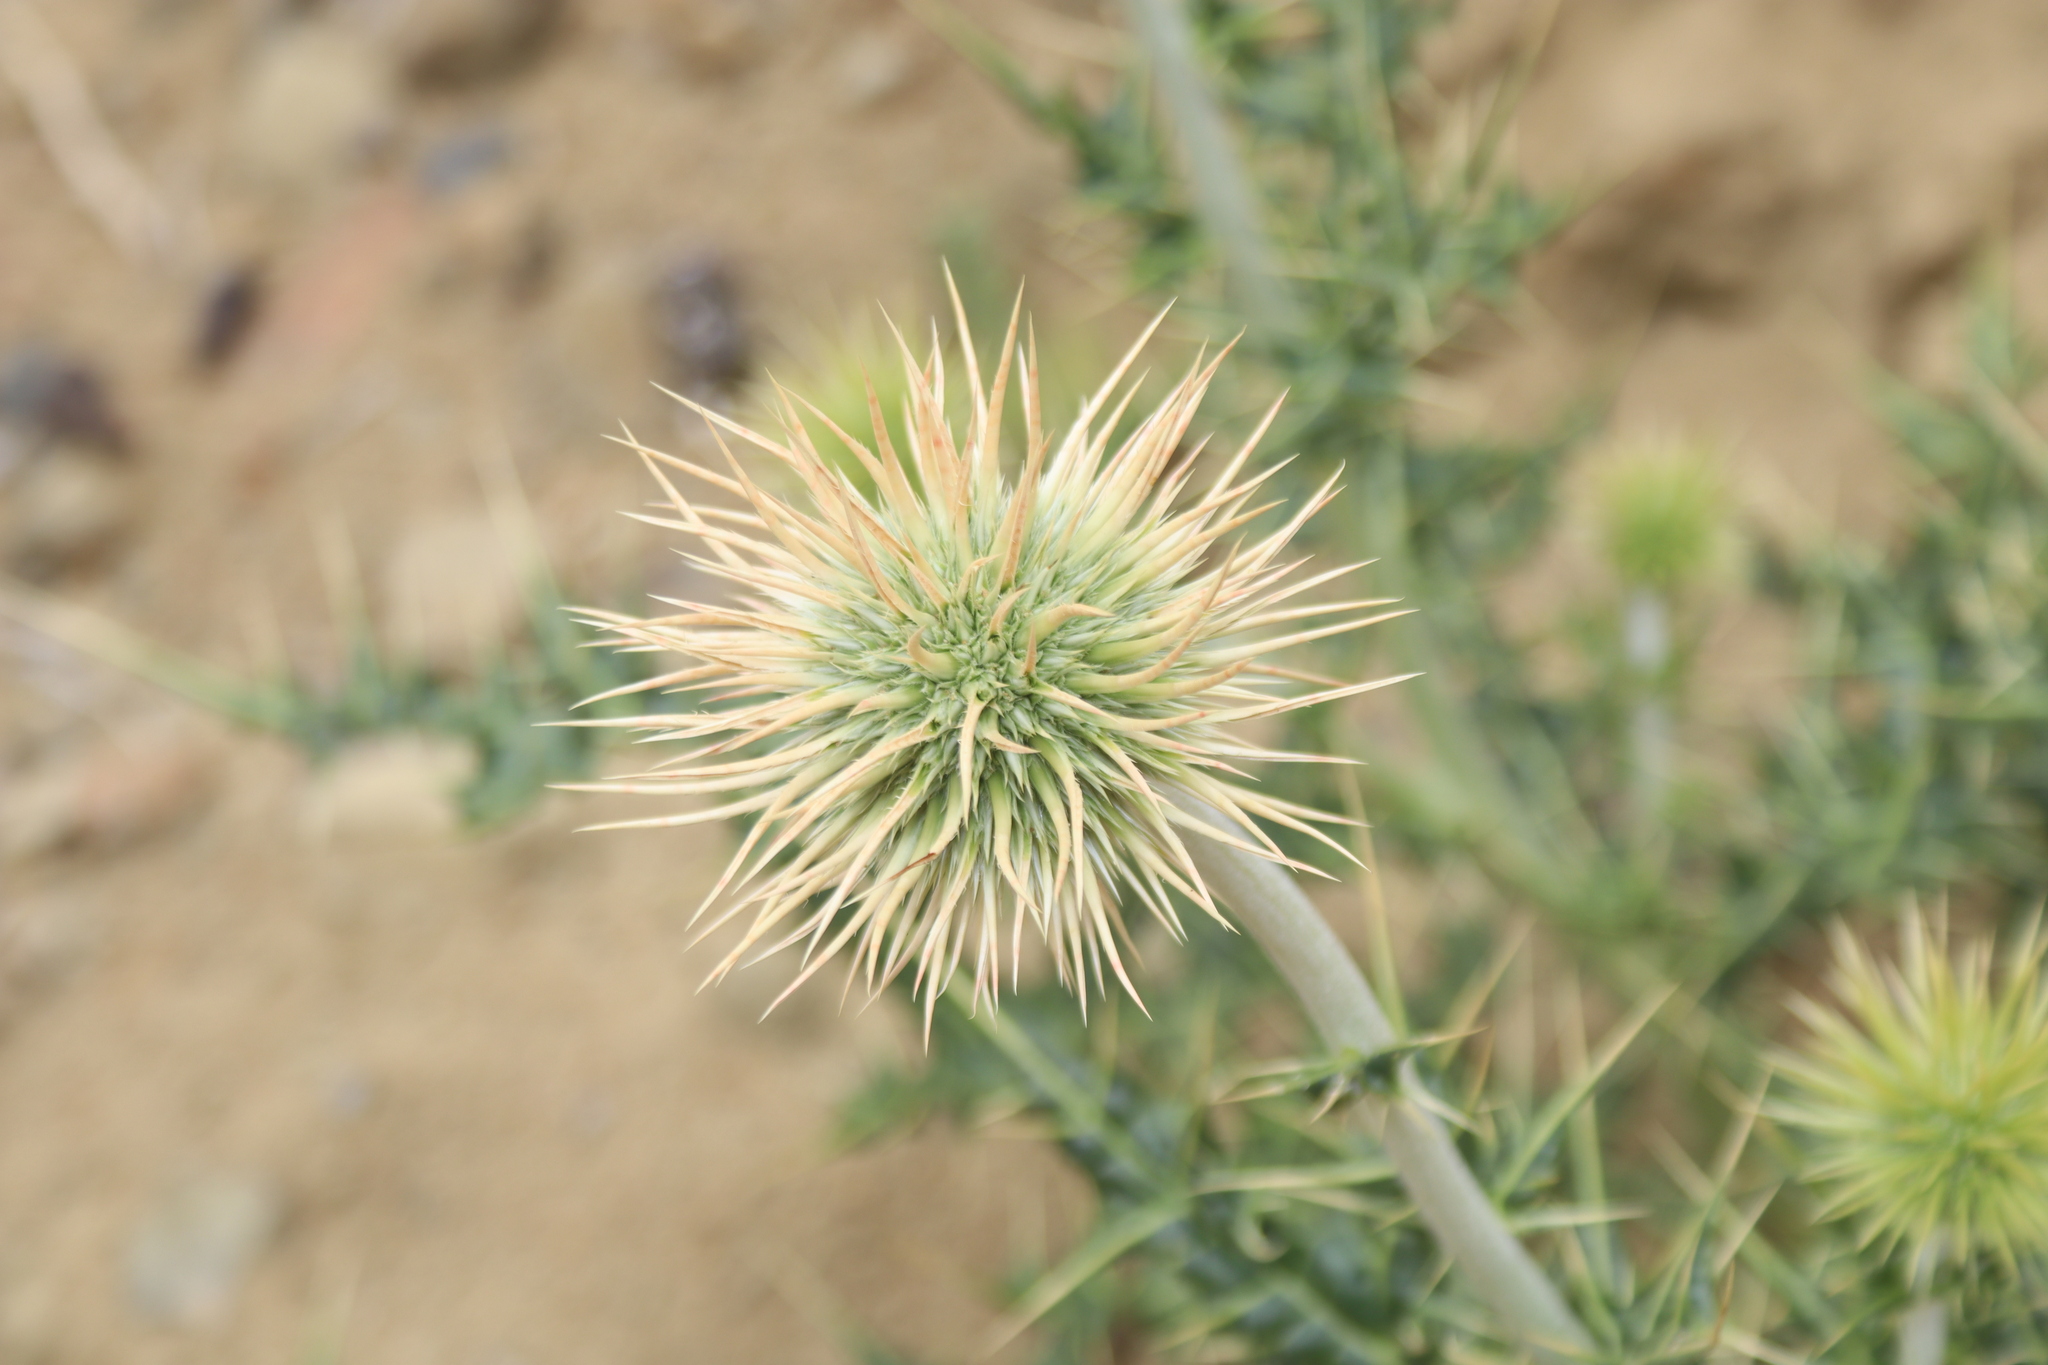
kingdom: Plantae
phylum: Tracheophyta
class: Magnoliopsida
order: Asterales
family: Asteraceae
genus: Echinops
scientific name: Echinops cornigerus
